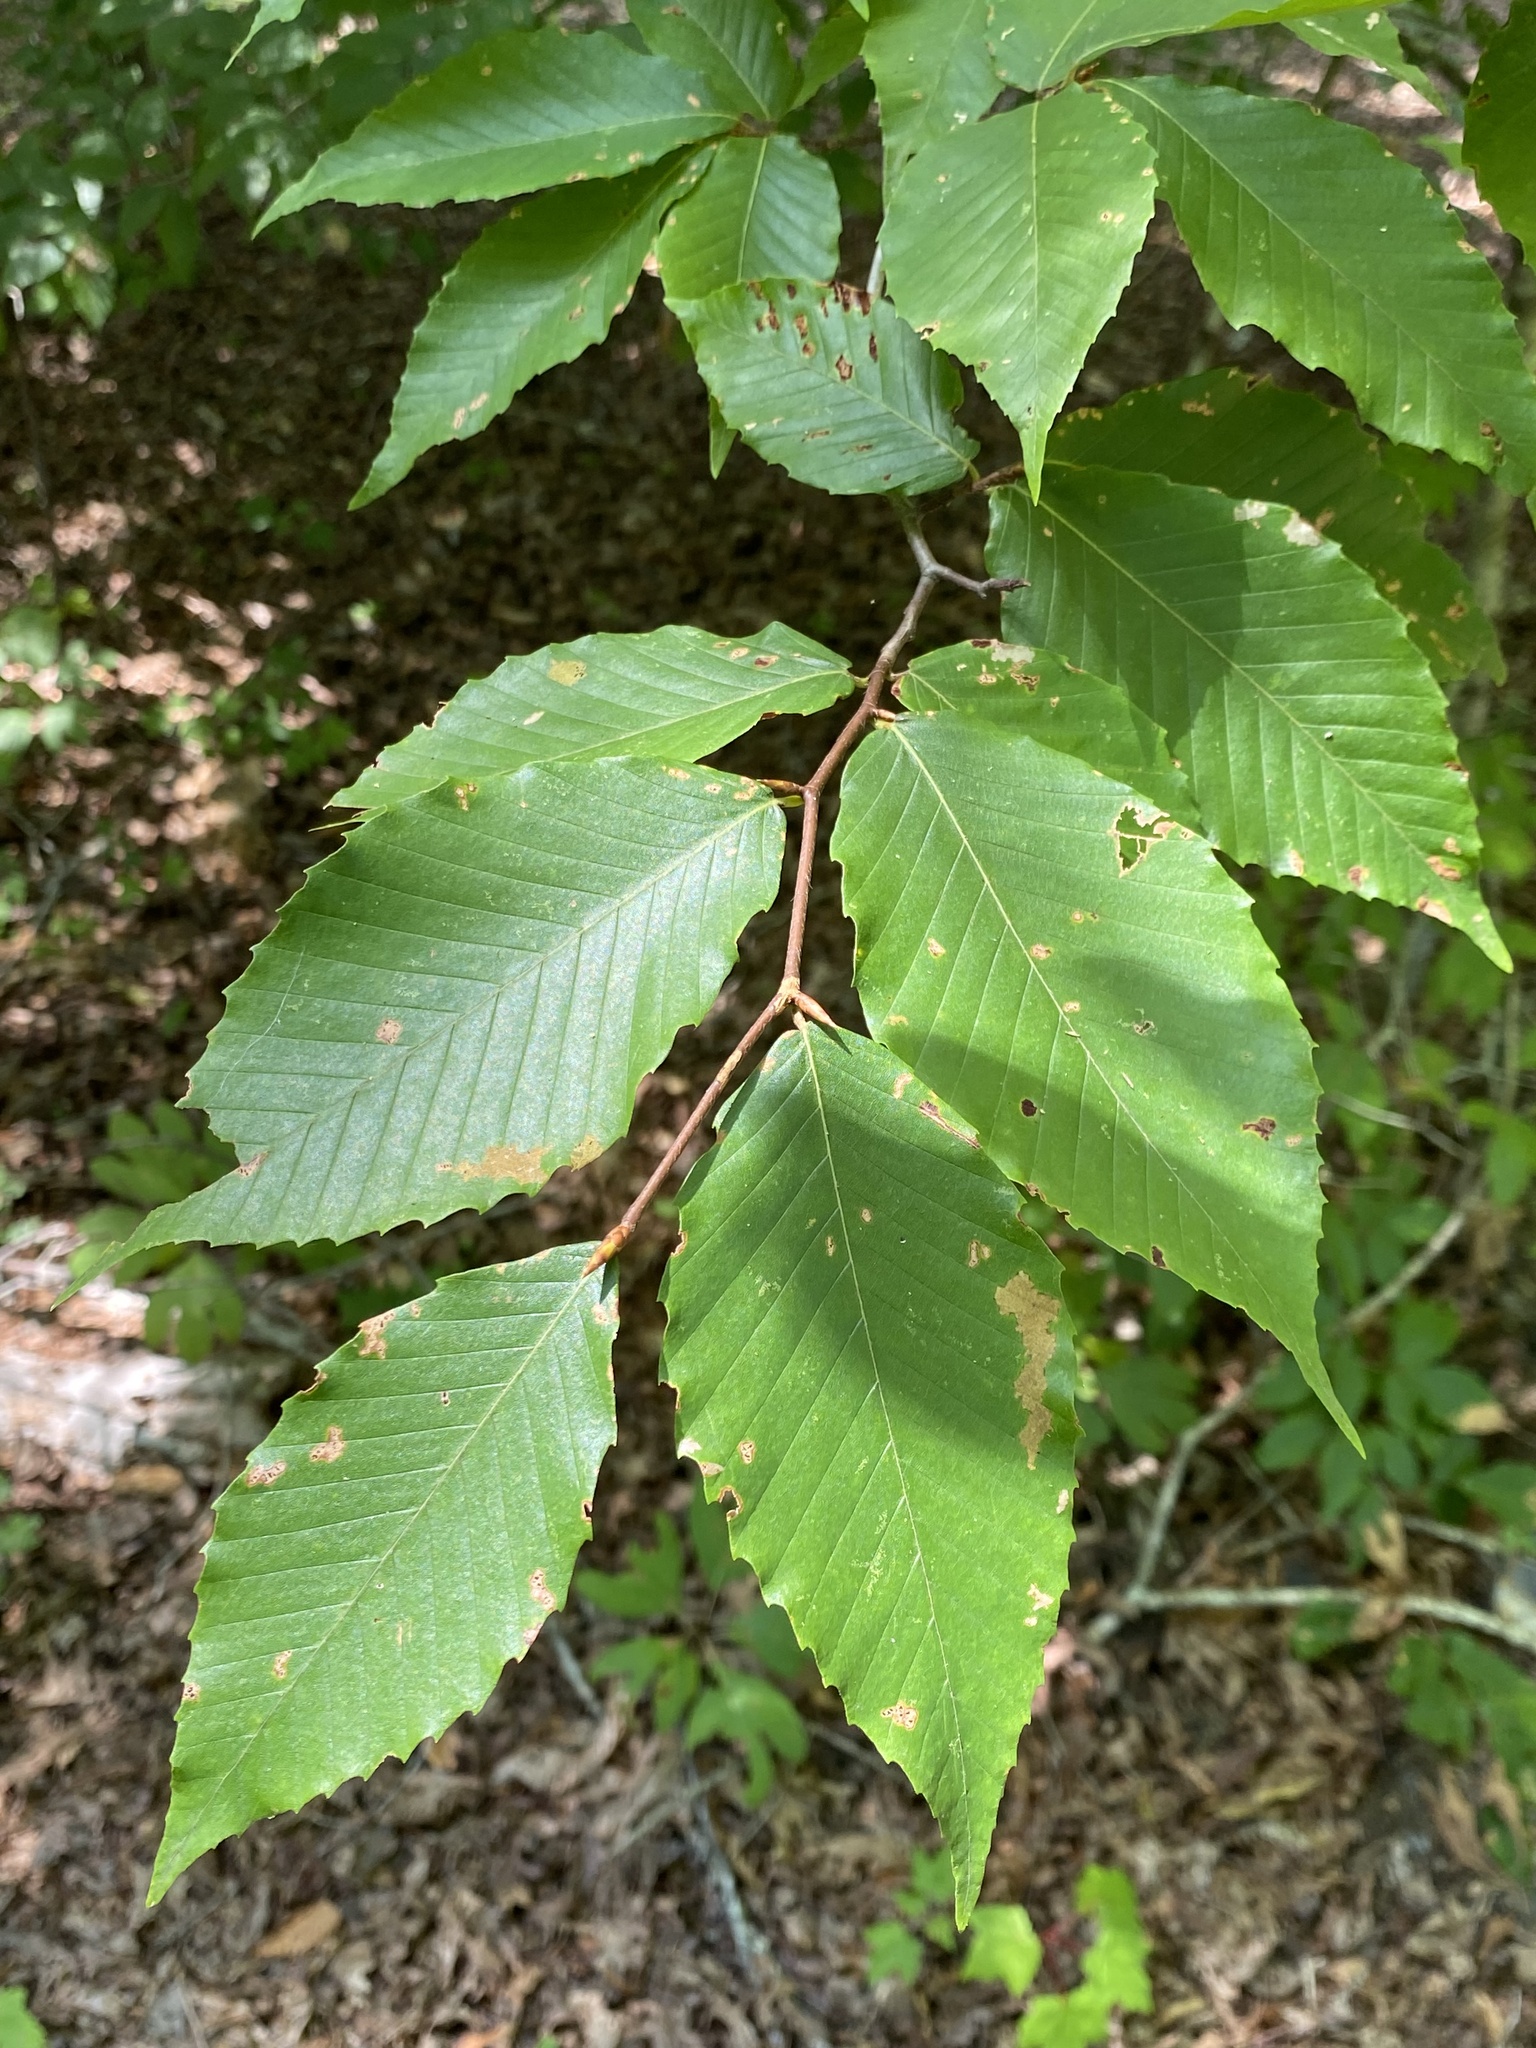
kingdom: Plantae
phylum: Tracheophyta
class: Magnoliopsida
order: Fagales
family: Fagaceae
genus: Fagus
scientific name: Fagus grandifolia
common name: American beech
